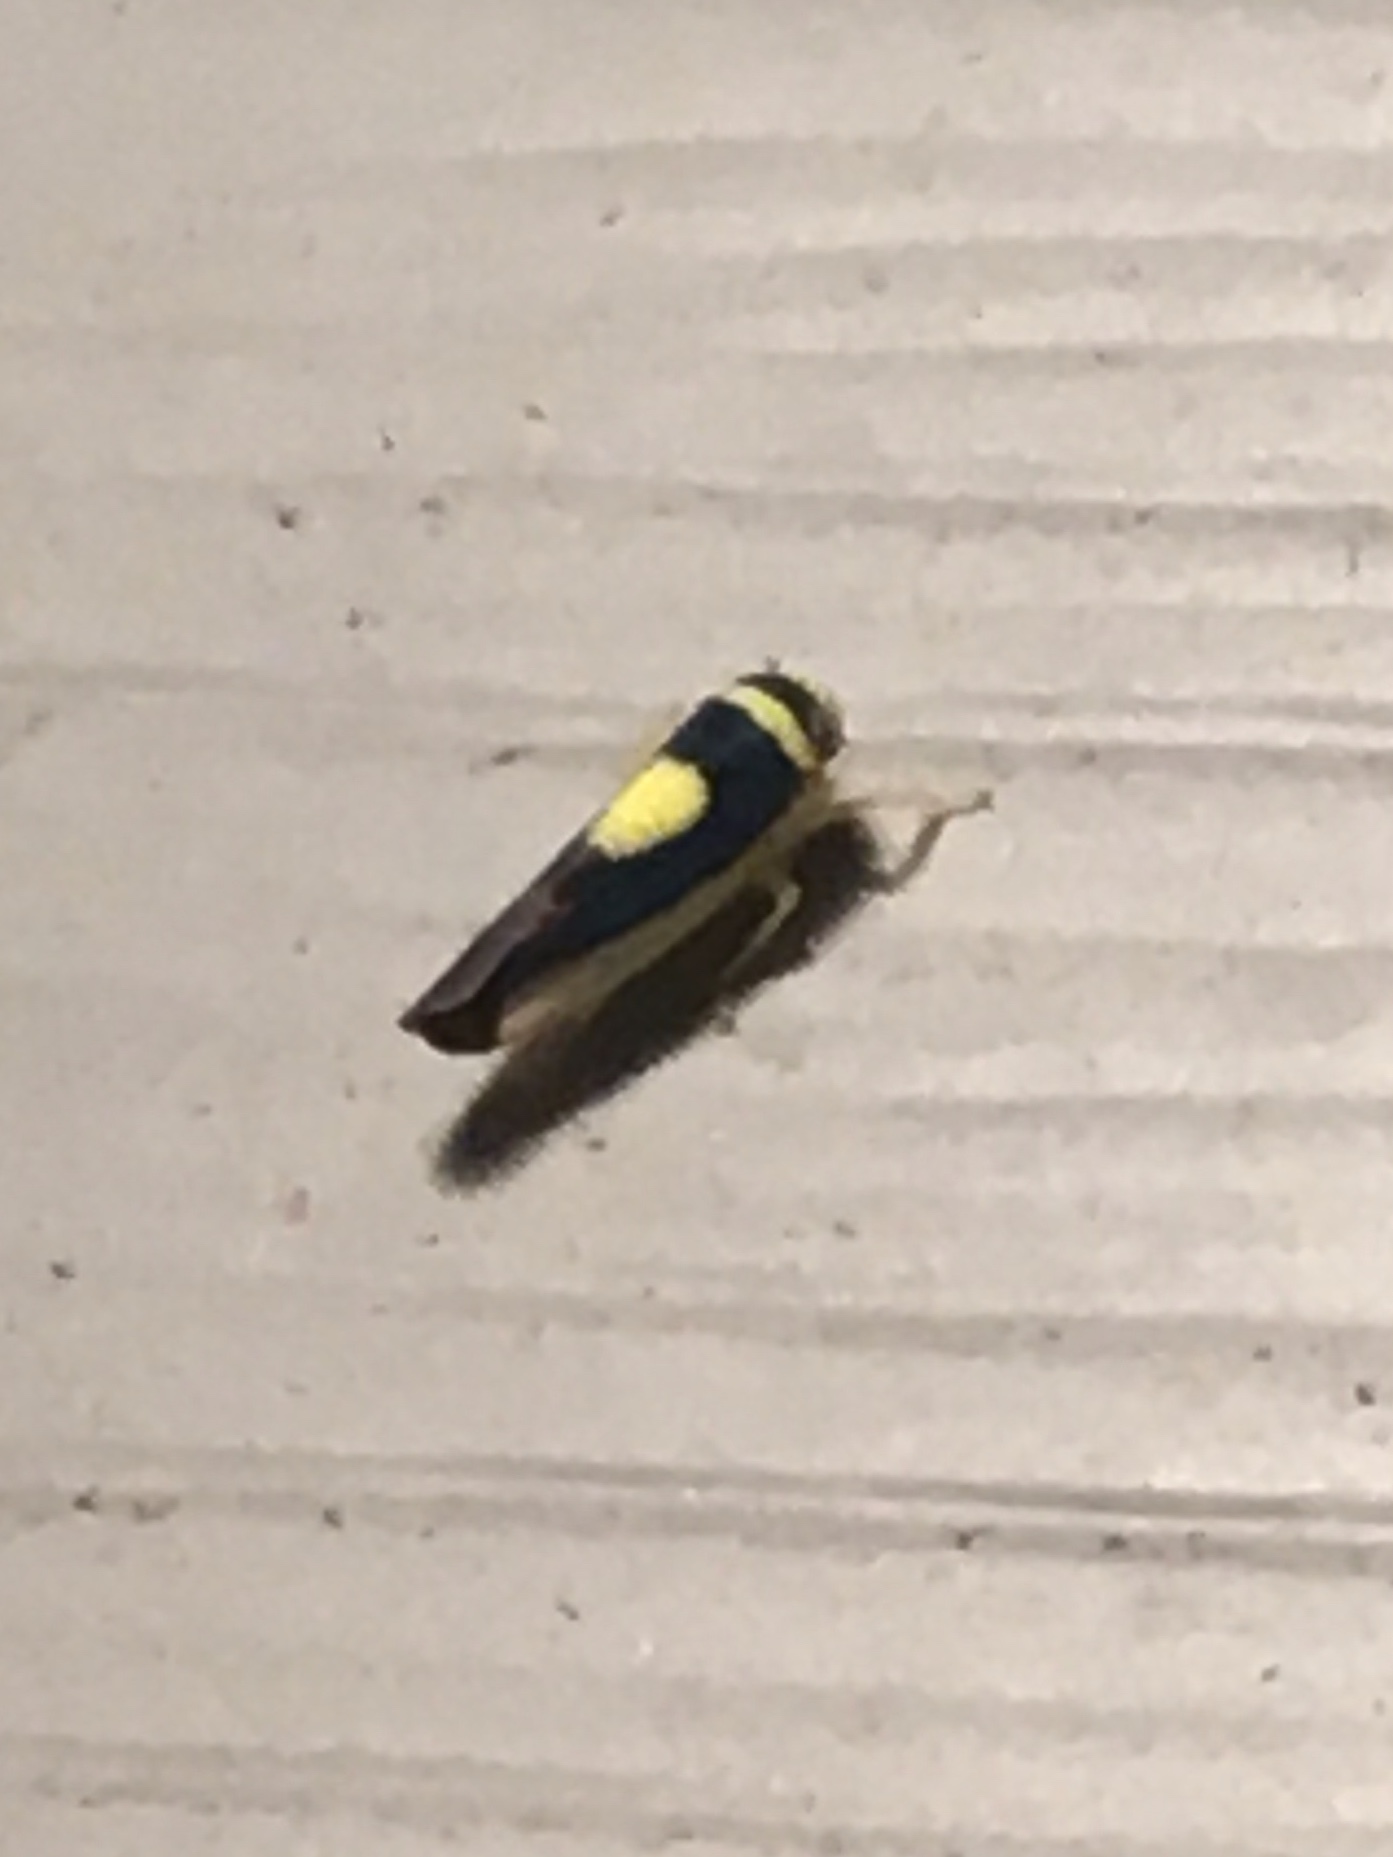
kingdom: Animalia
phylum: Arthropoda
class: Insecta
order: Hemiptera
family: Cicadellidae
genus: Colladonus
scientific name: Colladonus clitellarius
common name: The saddleback leafhopper
